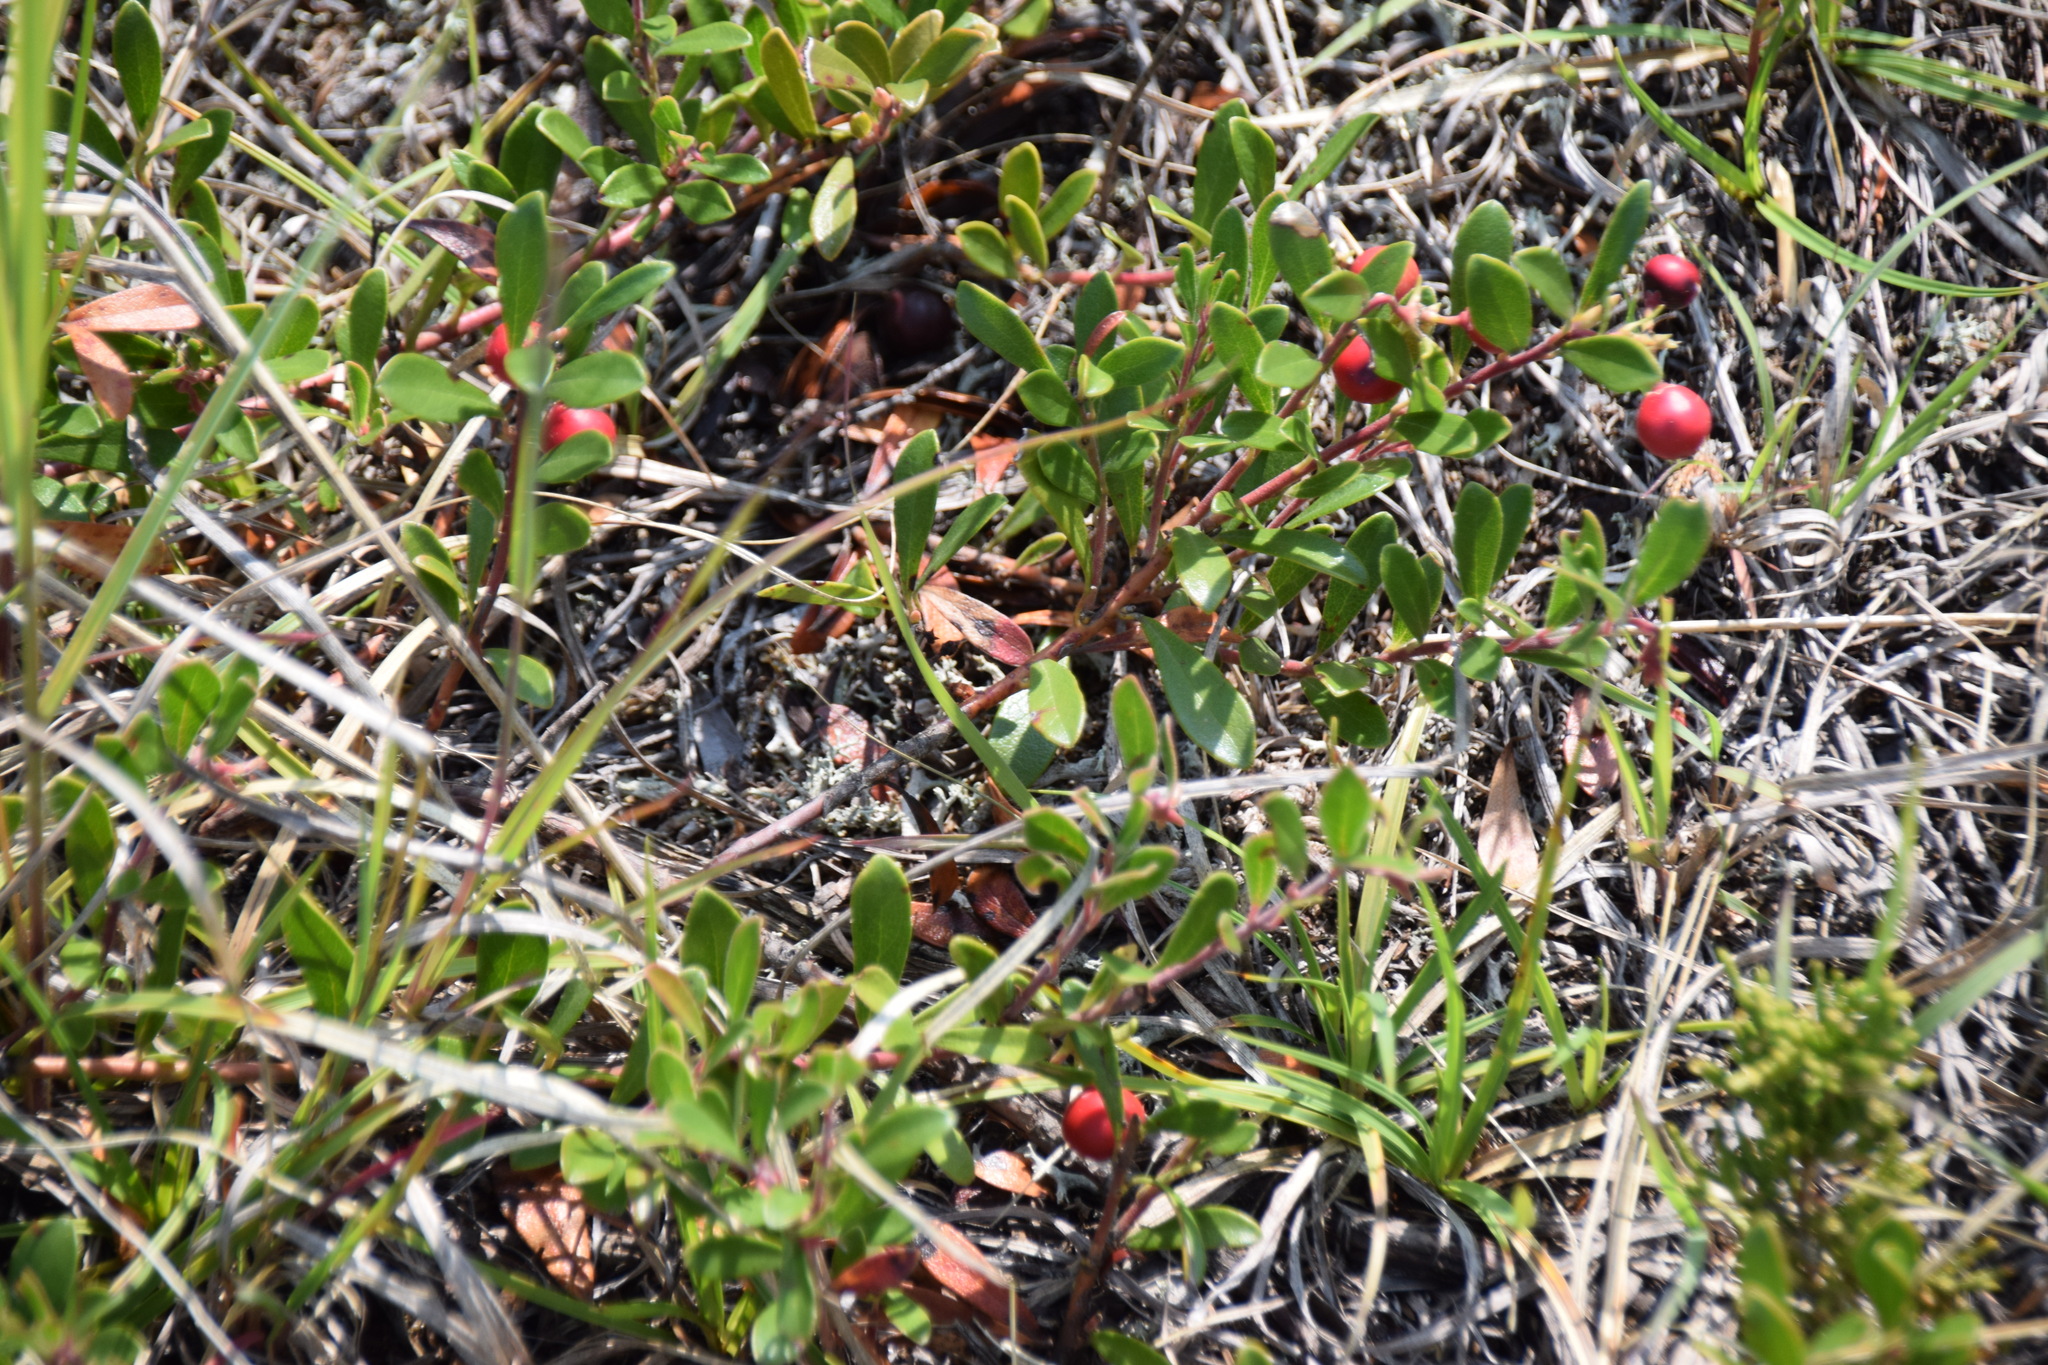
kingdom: Plantae
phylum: Tracheophyta
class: Magnoliopsida
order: Ericales
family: Ericaceae
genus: Arctostaphylos
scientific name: Arctostaphylos uva-ursi
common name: Bearberry
